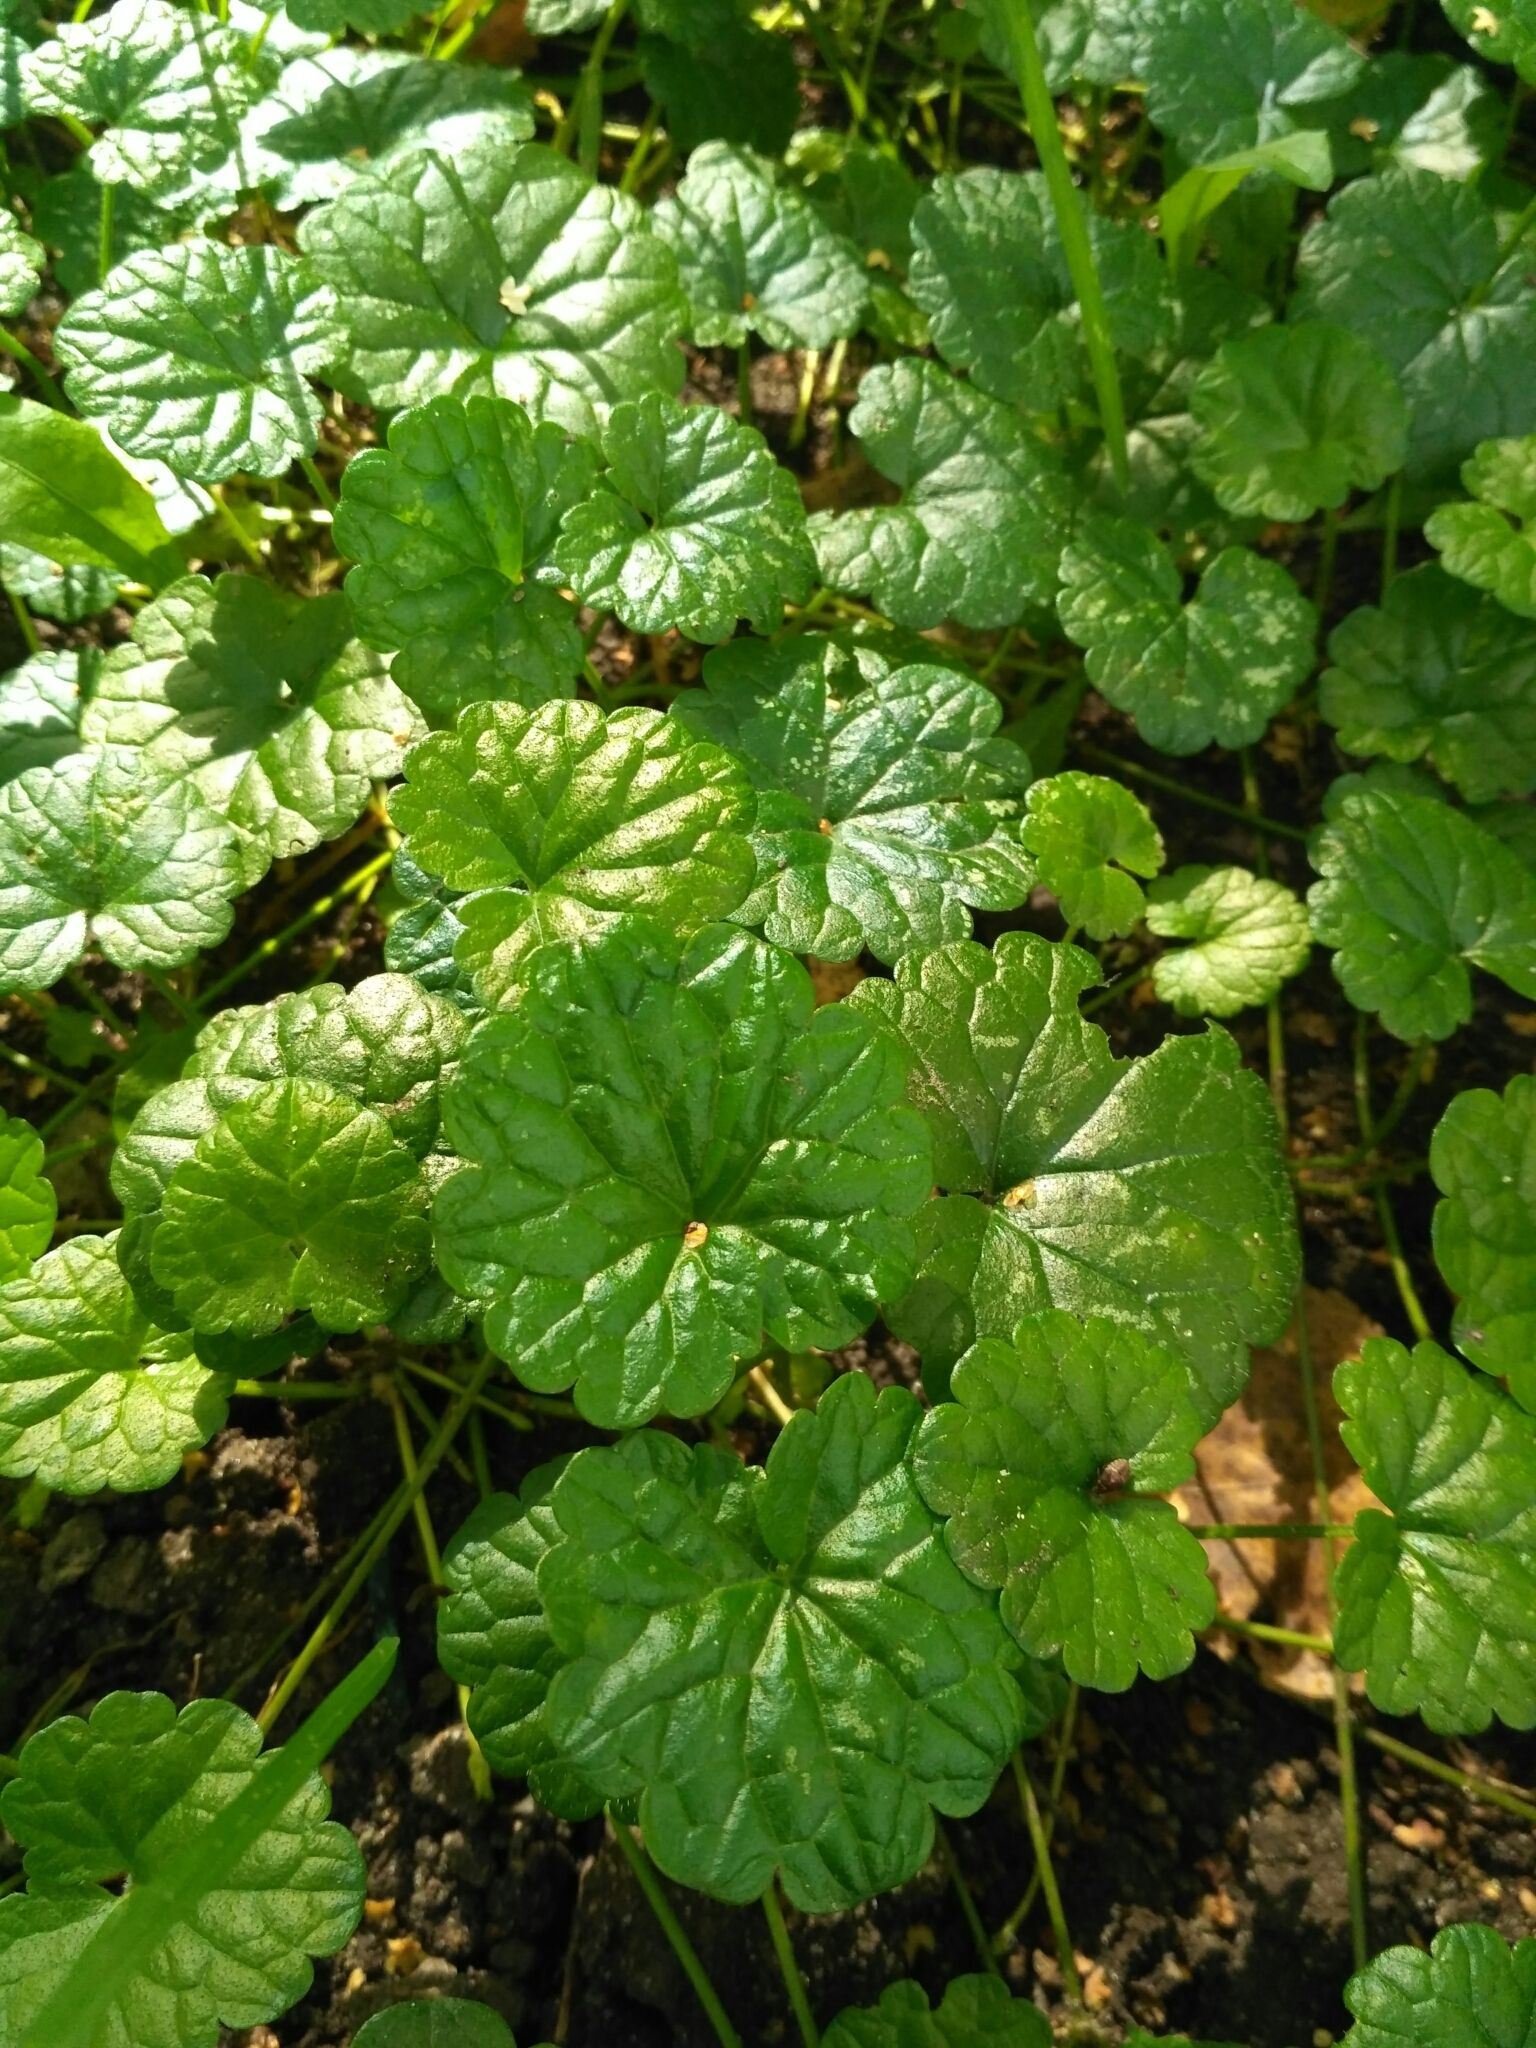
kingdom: Plantae
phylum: Tracheophyta
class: Magnoliopsida
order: Lamiales
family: Lamiaceae
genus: Glechoma
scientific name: Glechoma hederacea
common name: Ground ivy
